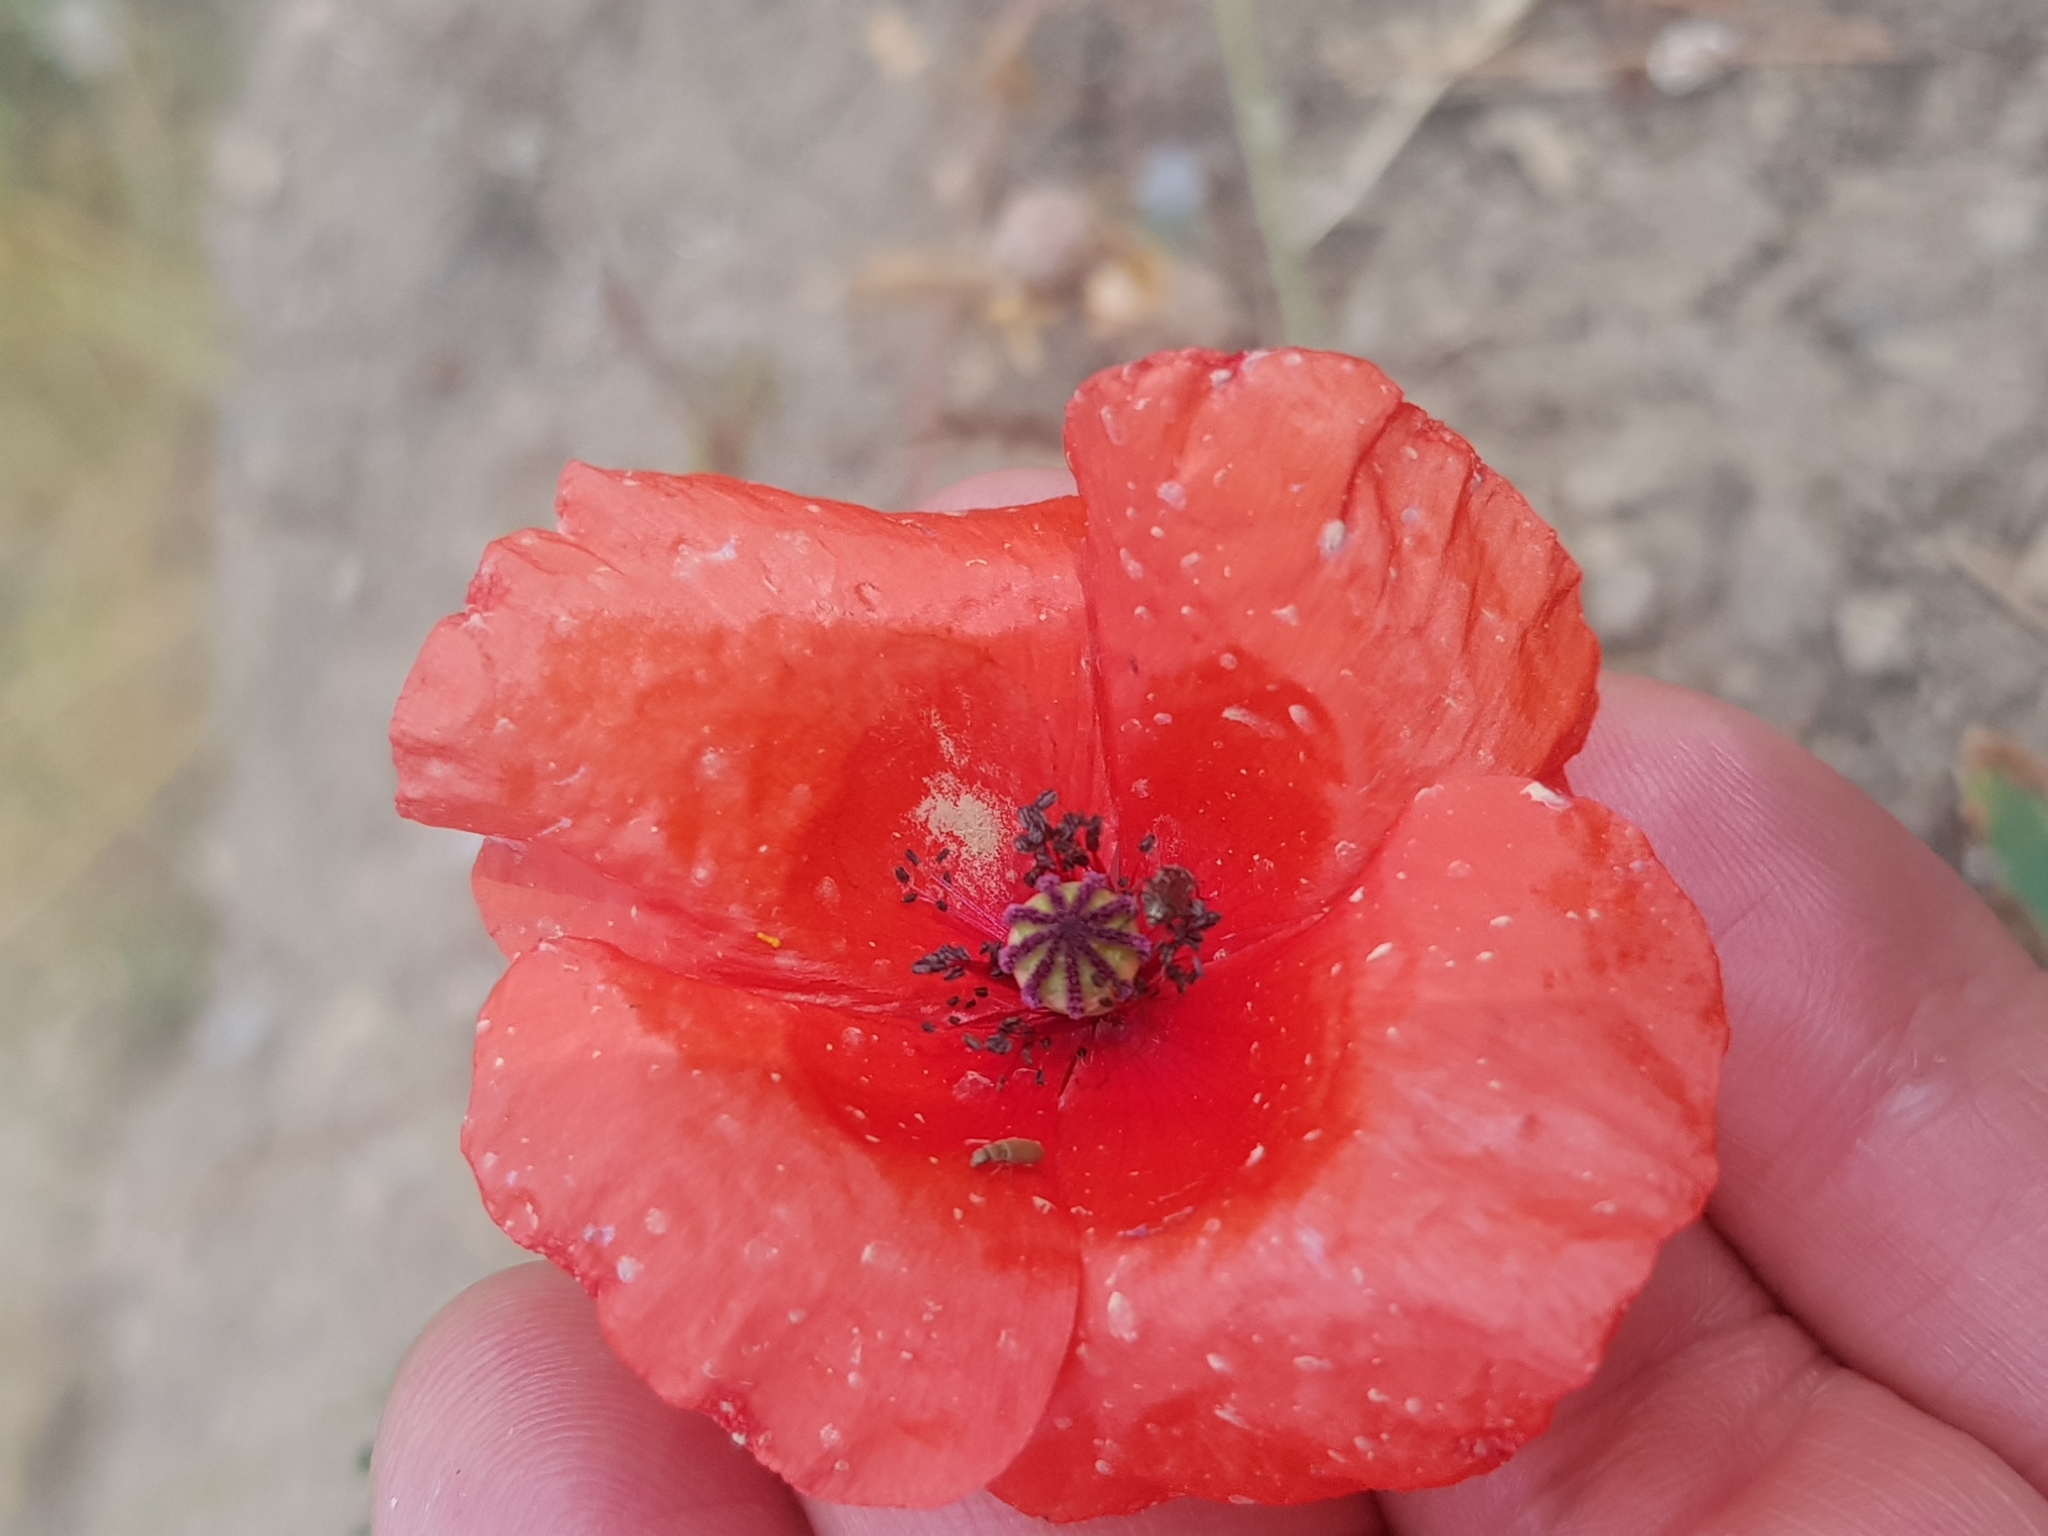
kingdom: Plantae
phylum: Tracheophyta
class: Magnoliopsida
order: Ranunculales
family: Papaveraceae
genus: Papaver
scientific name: Papaver rhoeas
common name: Corn poppy
